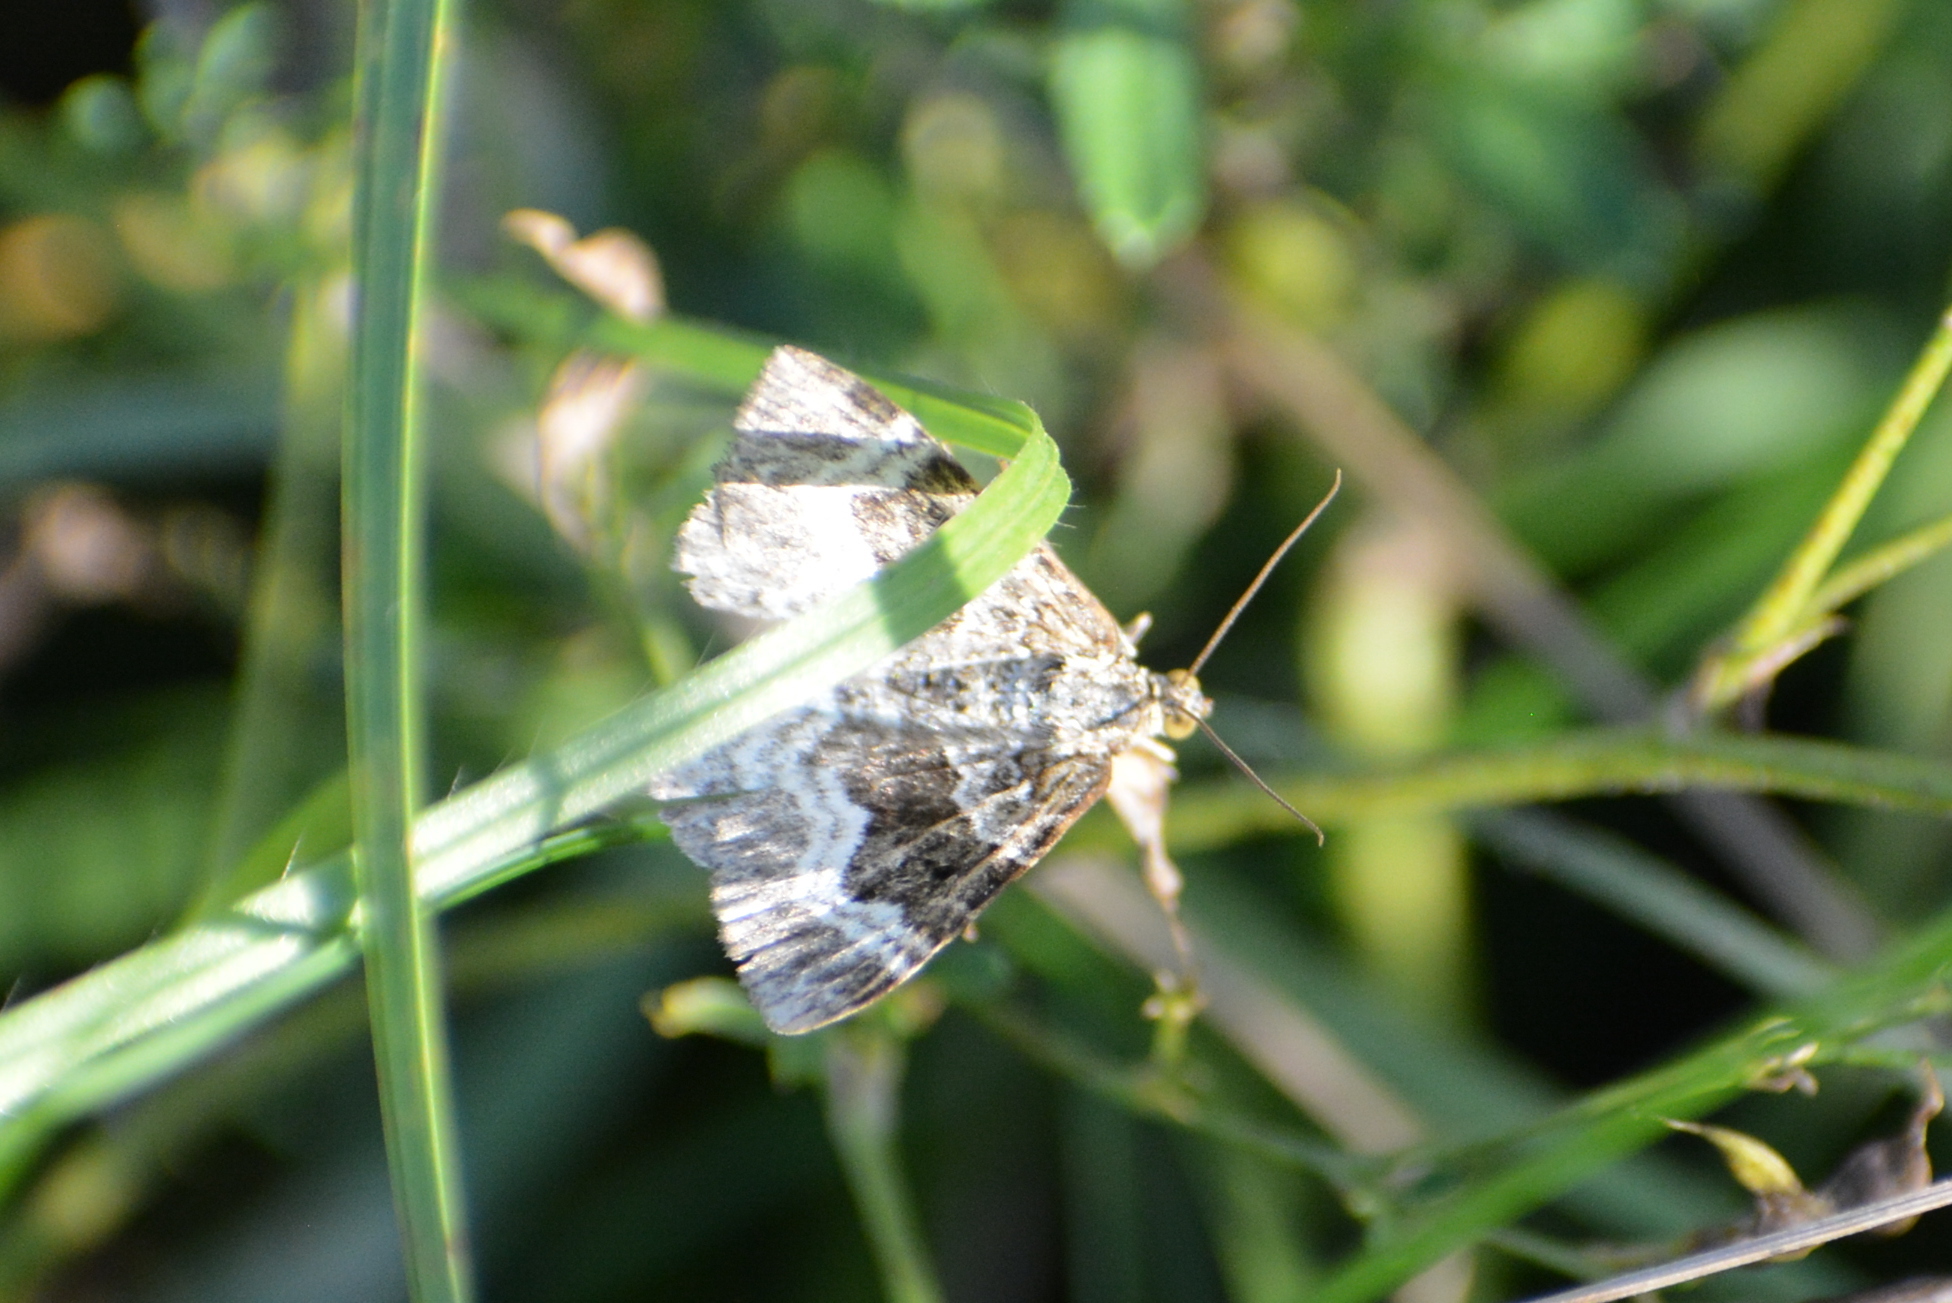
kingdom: Animalia
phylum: Arthropoda
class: Insecta
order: Lepidoptera
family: Geometridae
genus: Epirrhoe
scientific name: Epirrhoe alternata
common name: Common carpet
